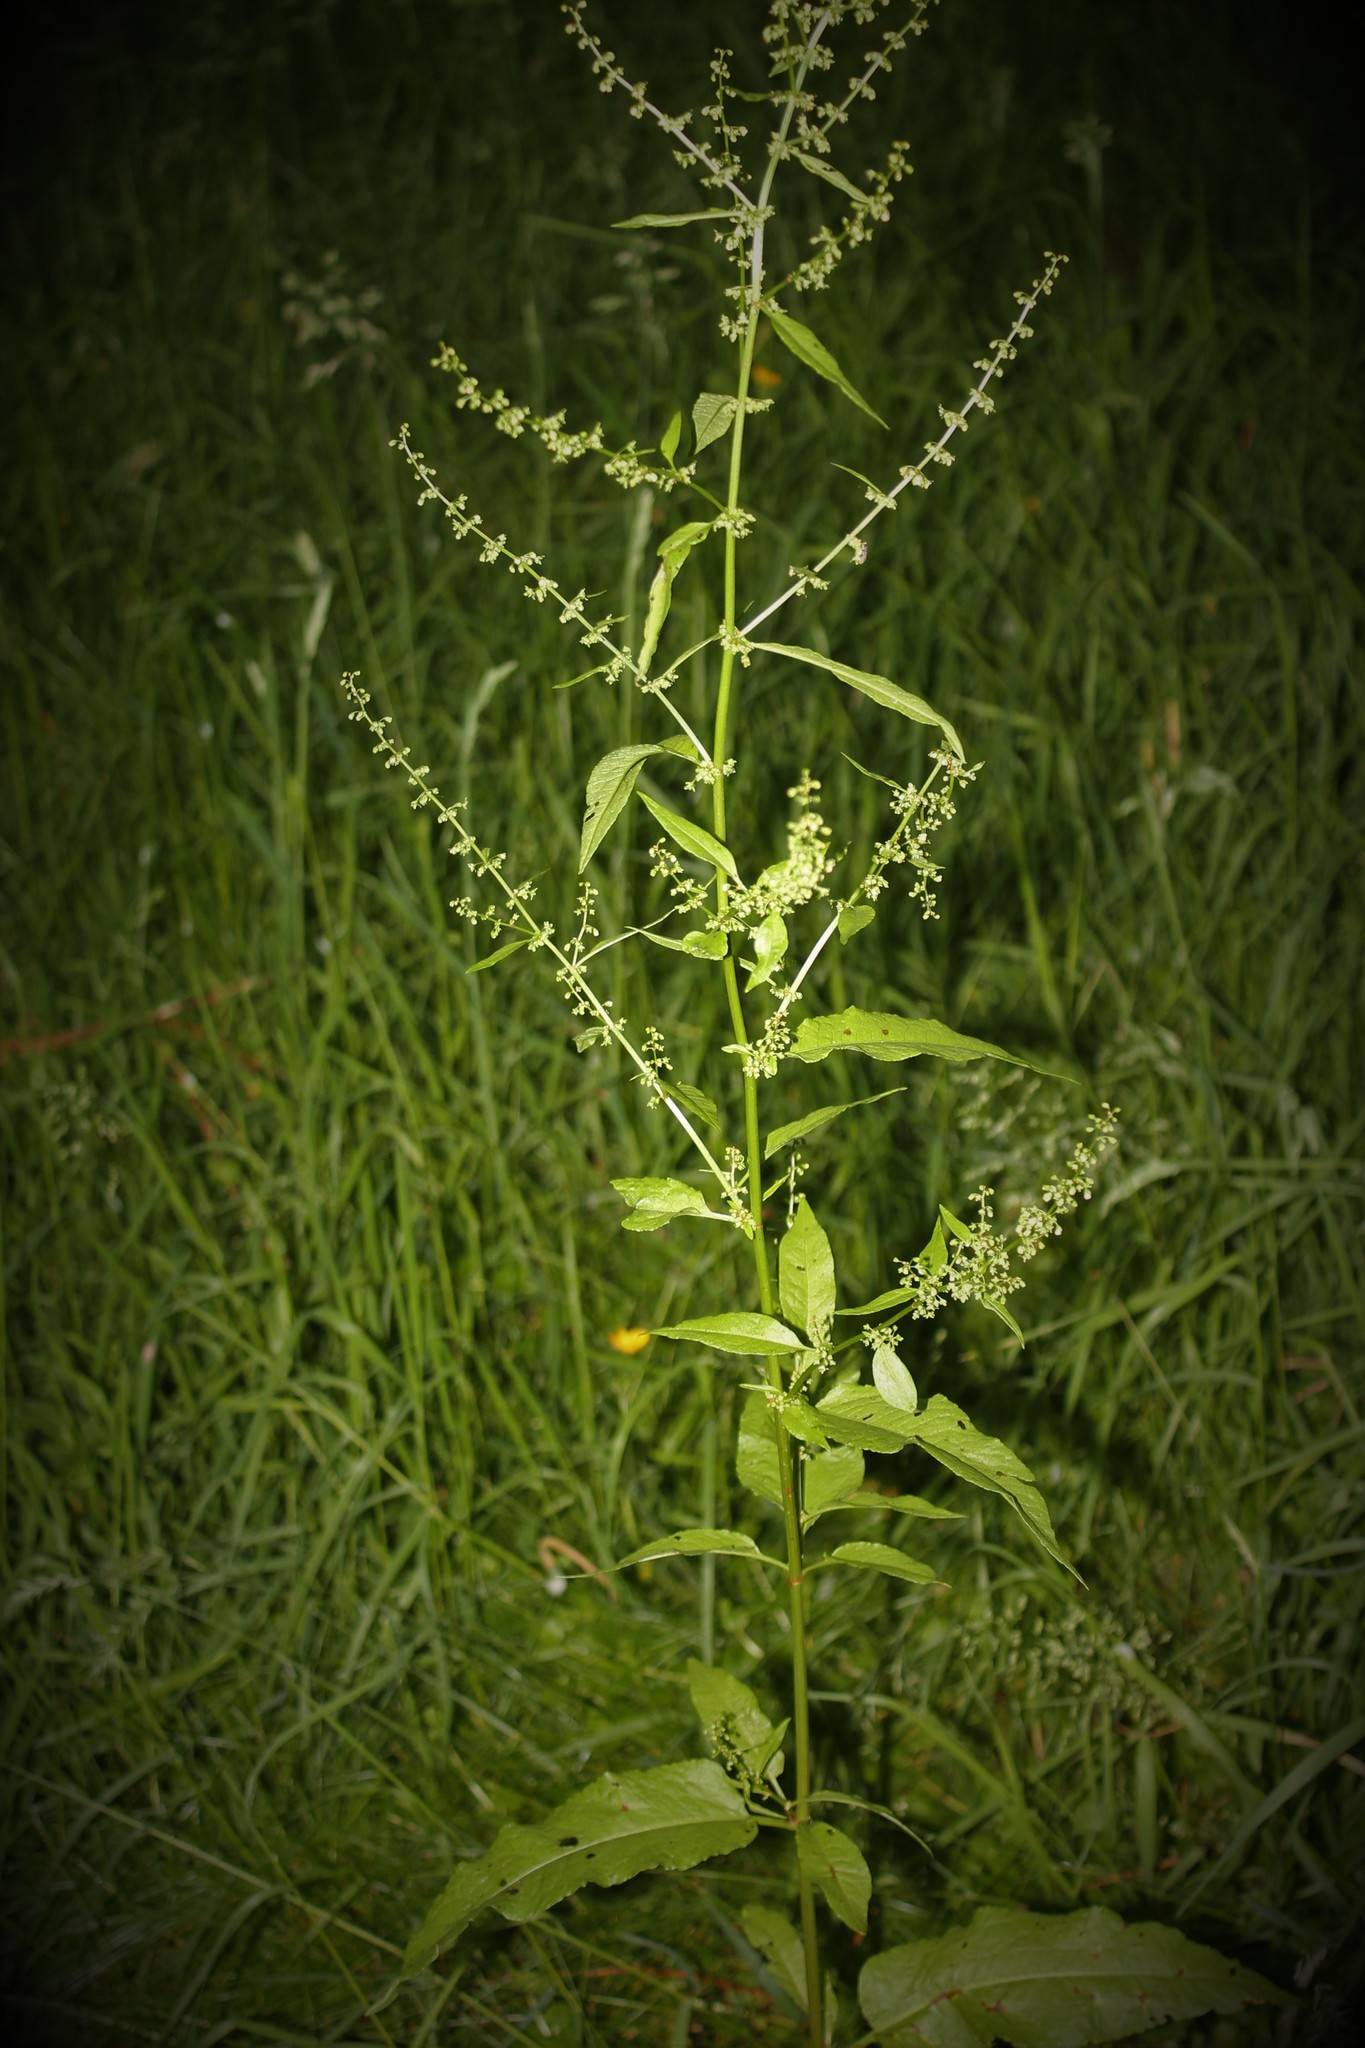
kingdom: Plantae
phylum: Tracheophyta
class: Magnoliopsida
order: Caryophyllales
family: Polygonaceae
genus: Rumex
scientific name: Rumex sanguineus
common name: Wood dock
